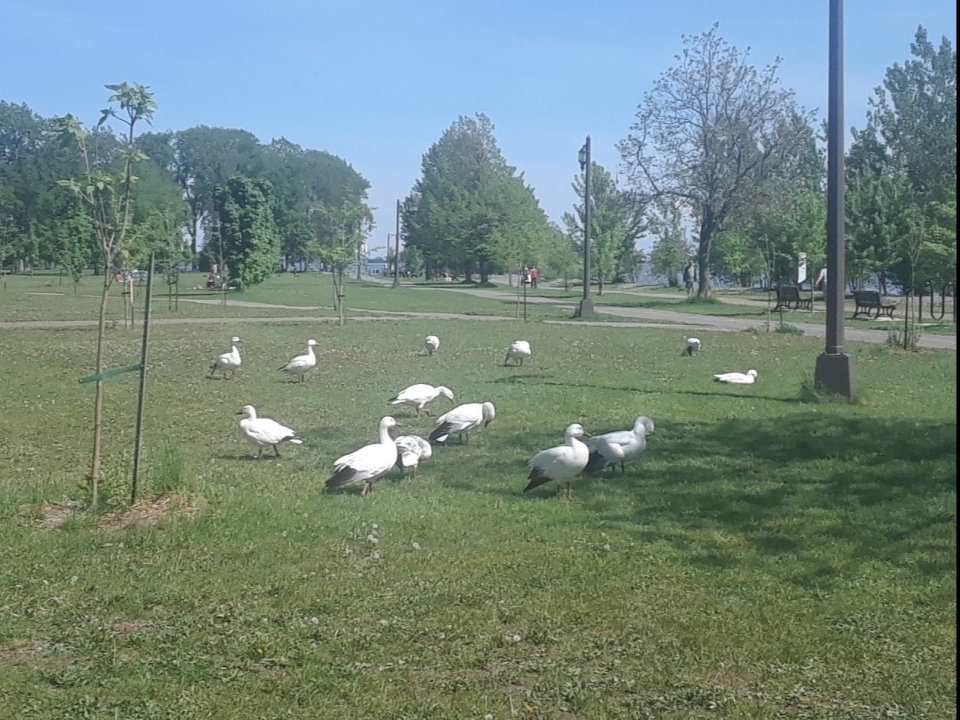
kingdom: Animalia
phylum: Chordata
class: Aves
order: Anseriformes
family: Anatidae
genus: Anser
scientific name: Anser caerulescens
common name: Snow goose
